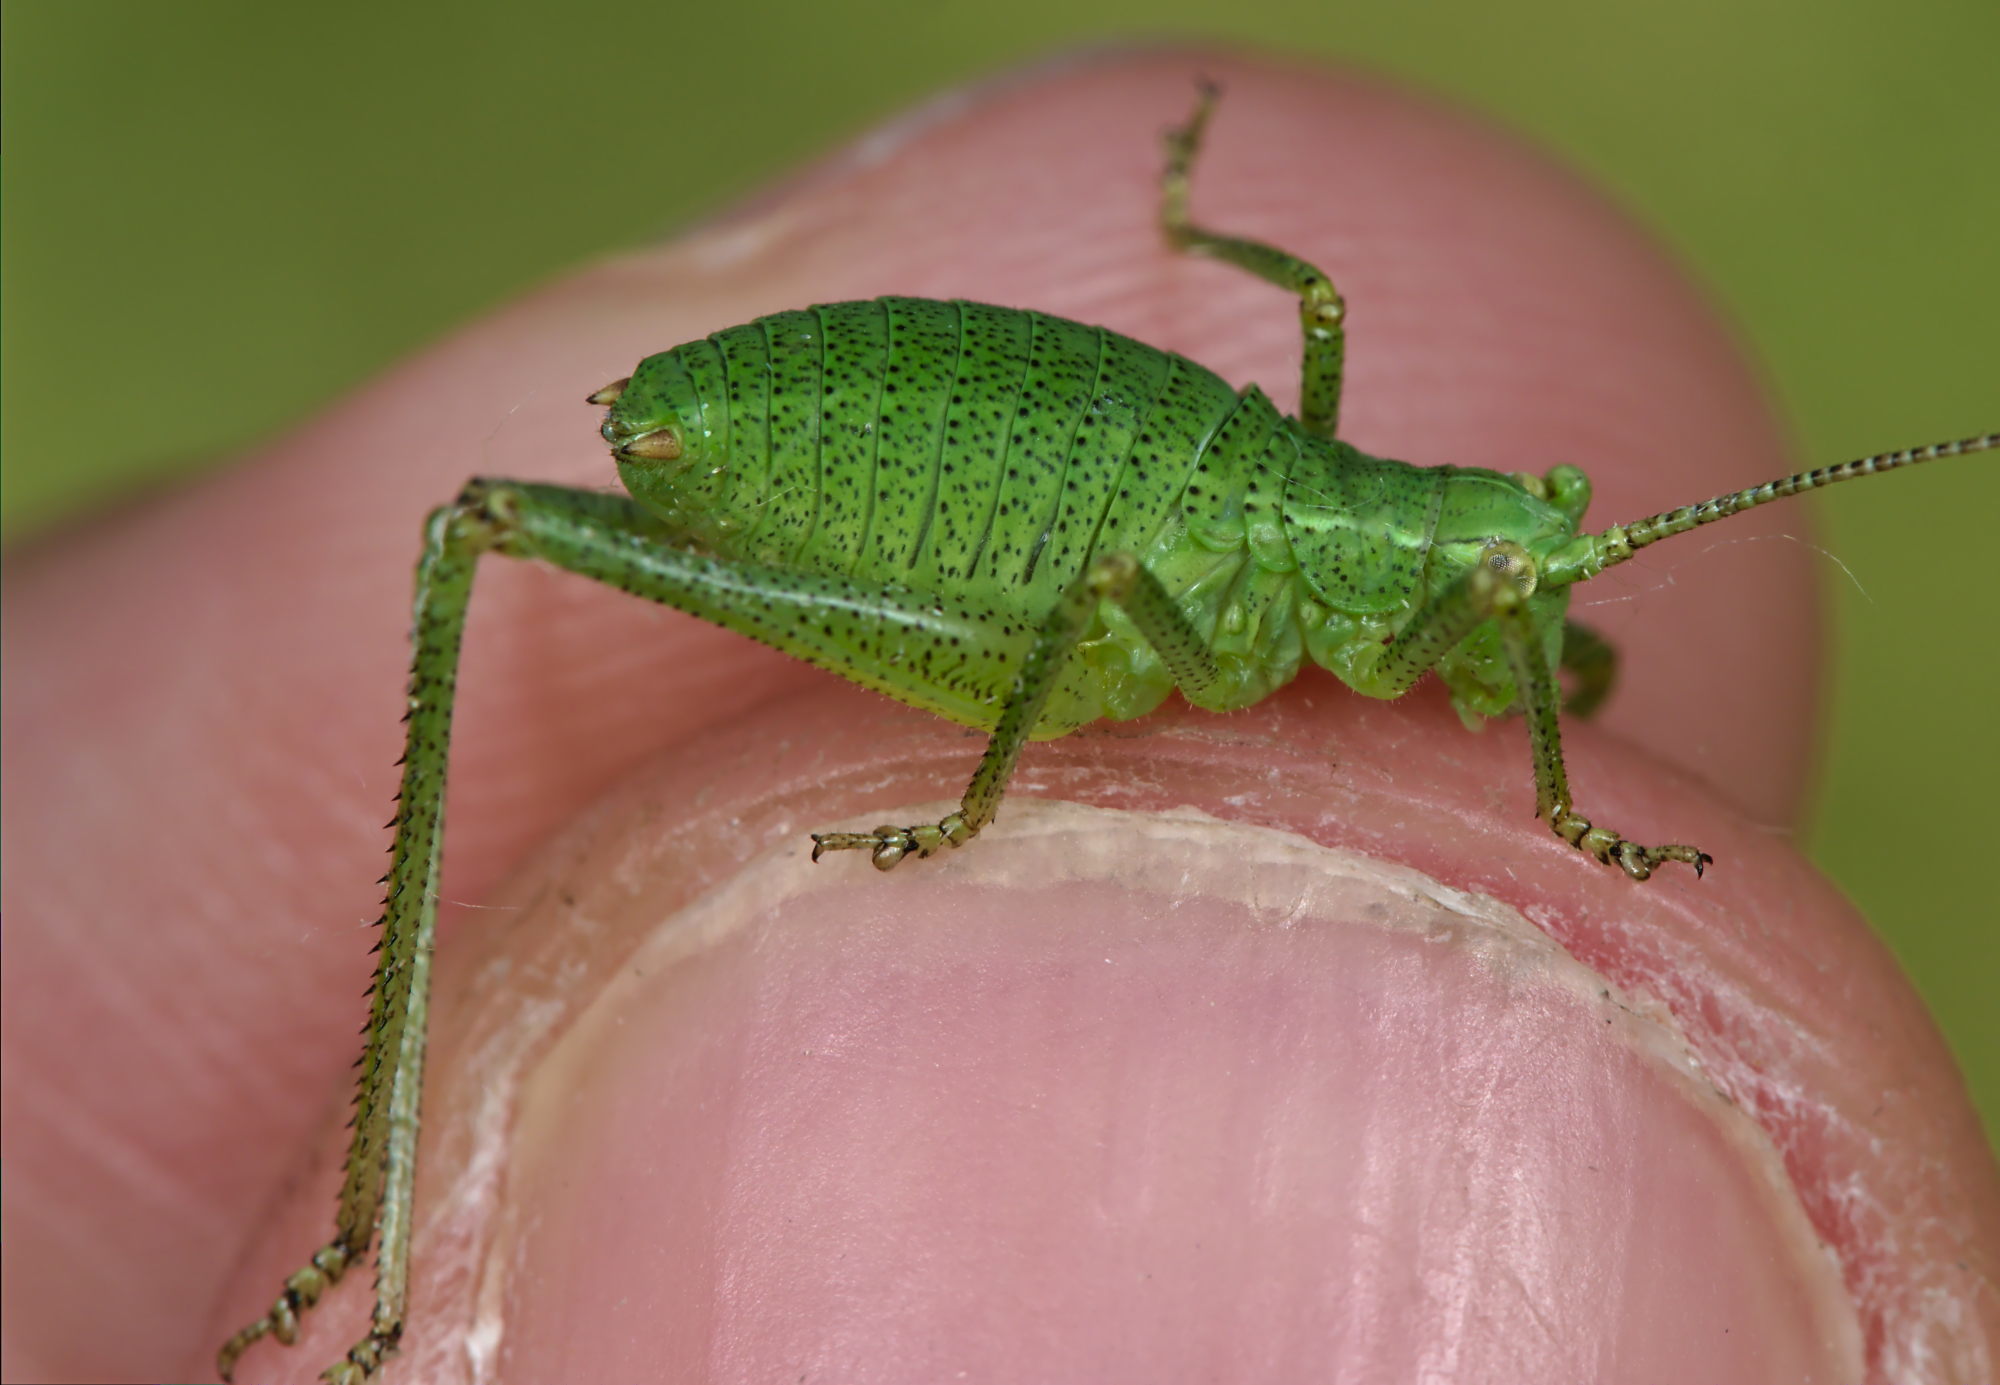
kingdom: Animalia
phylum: Arthropoda
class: Insecta
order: Orthoptera
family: Tettigoniidae
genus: Leptophyes
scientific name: Leptophyes punctatissima
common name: Speckled bush-cricket
